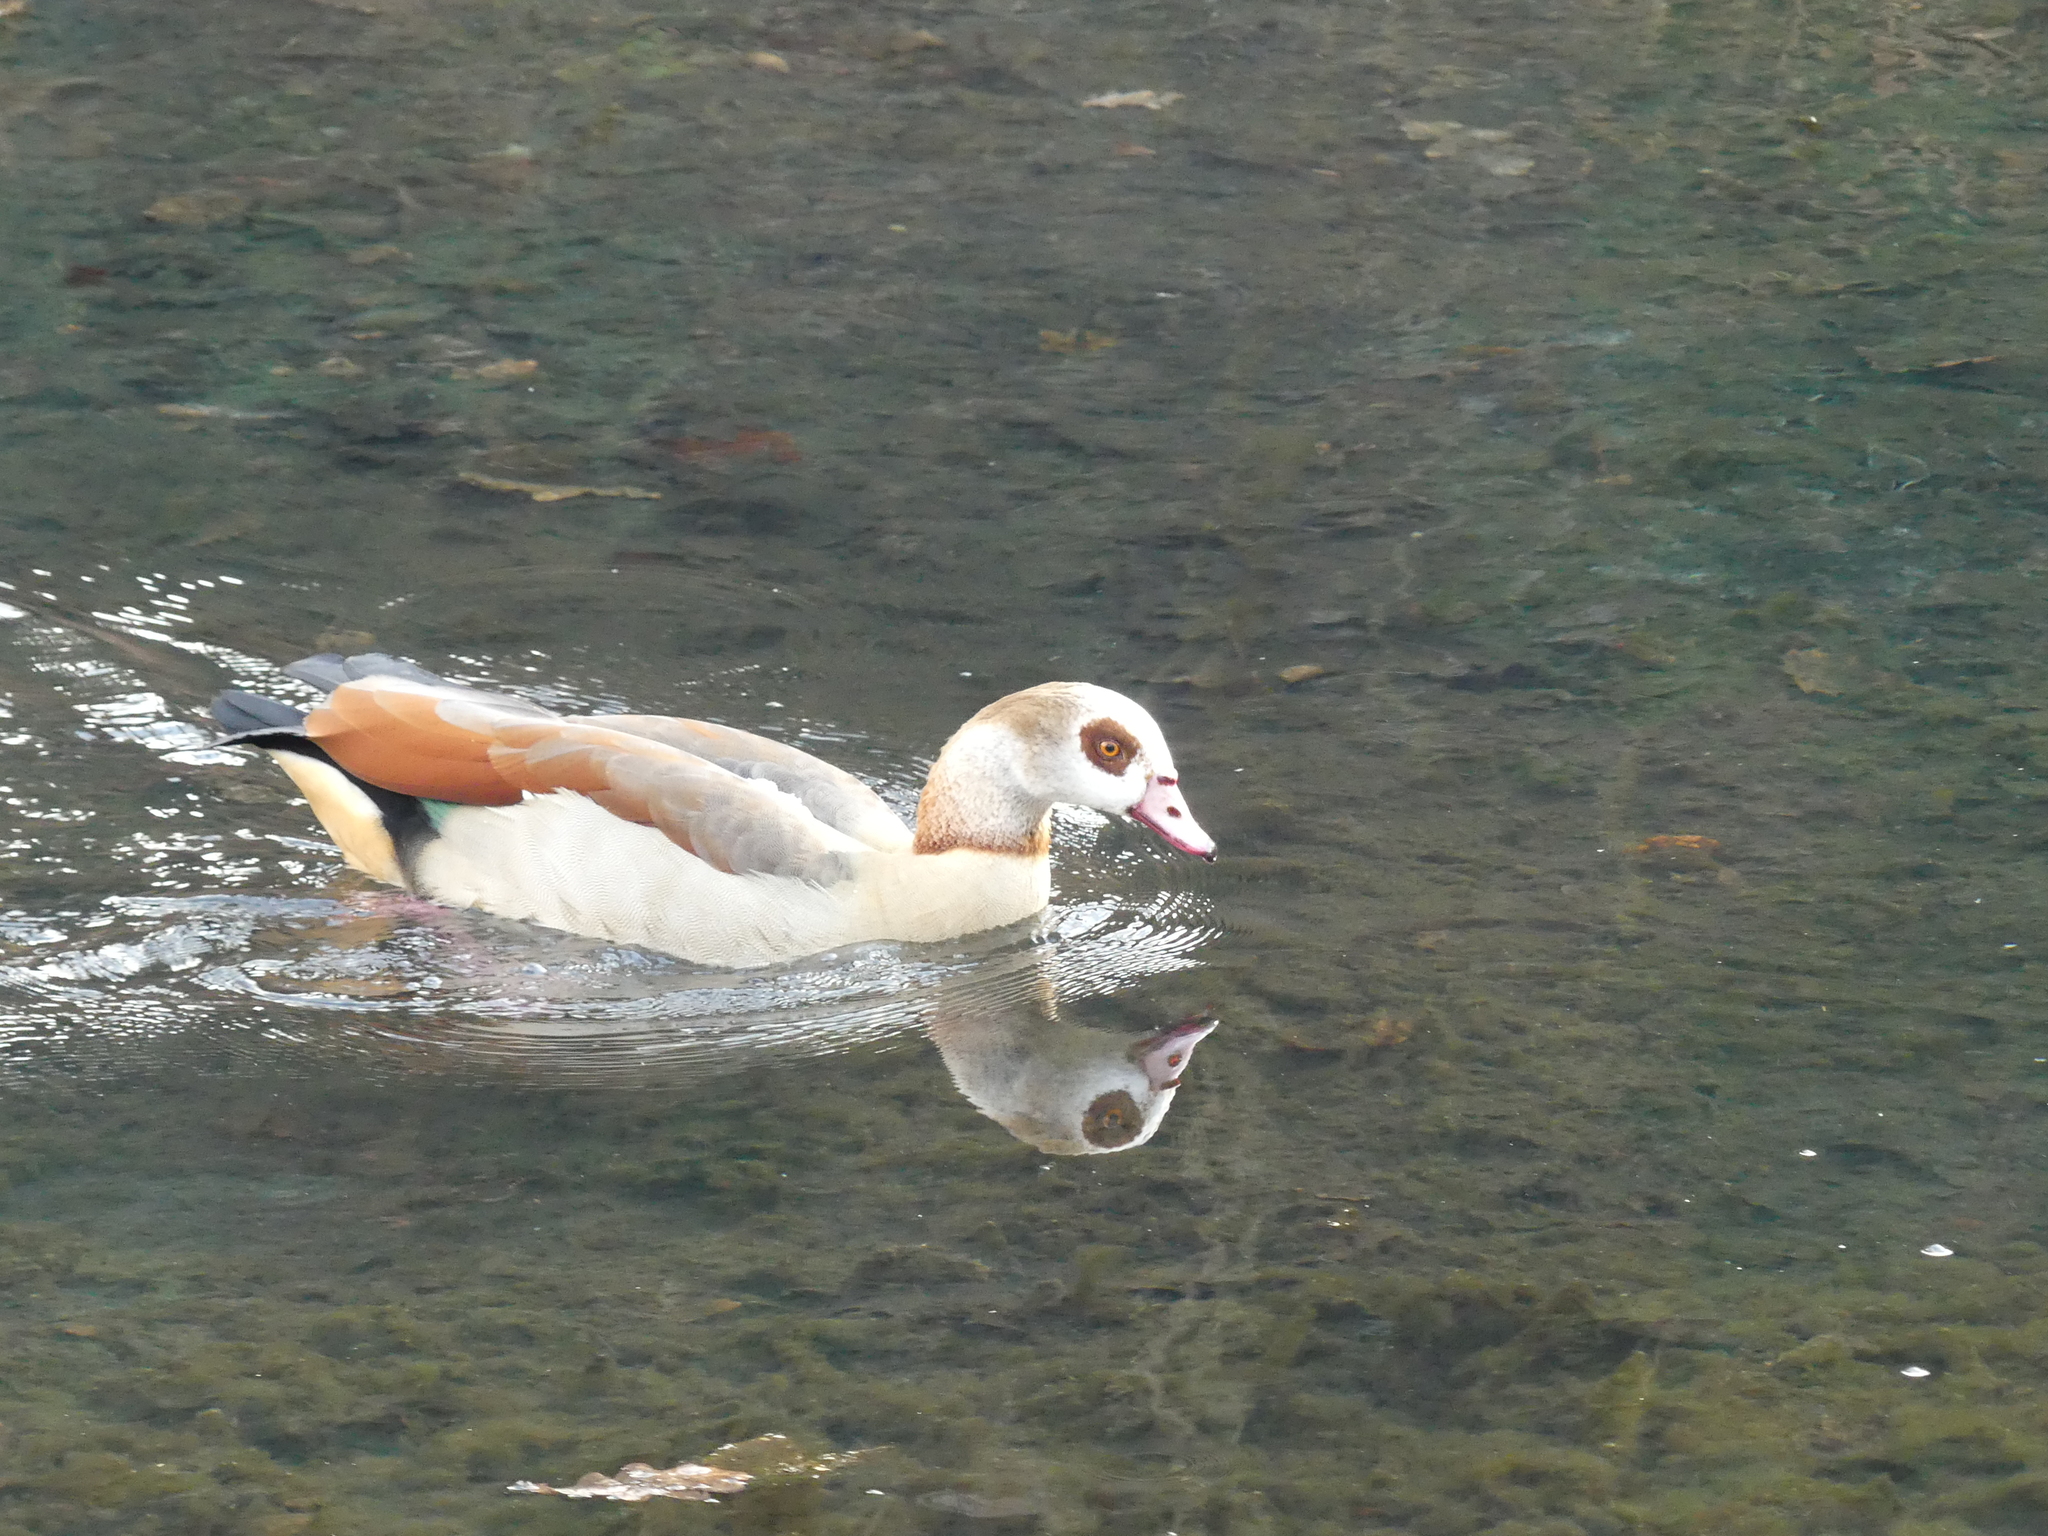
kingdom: Animalia
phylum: Chordata
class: Aves
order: Anseriformes
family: Anatidae
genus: Alopochen
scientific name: Alopochen aegyptiaca
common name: Egyptian goose
